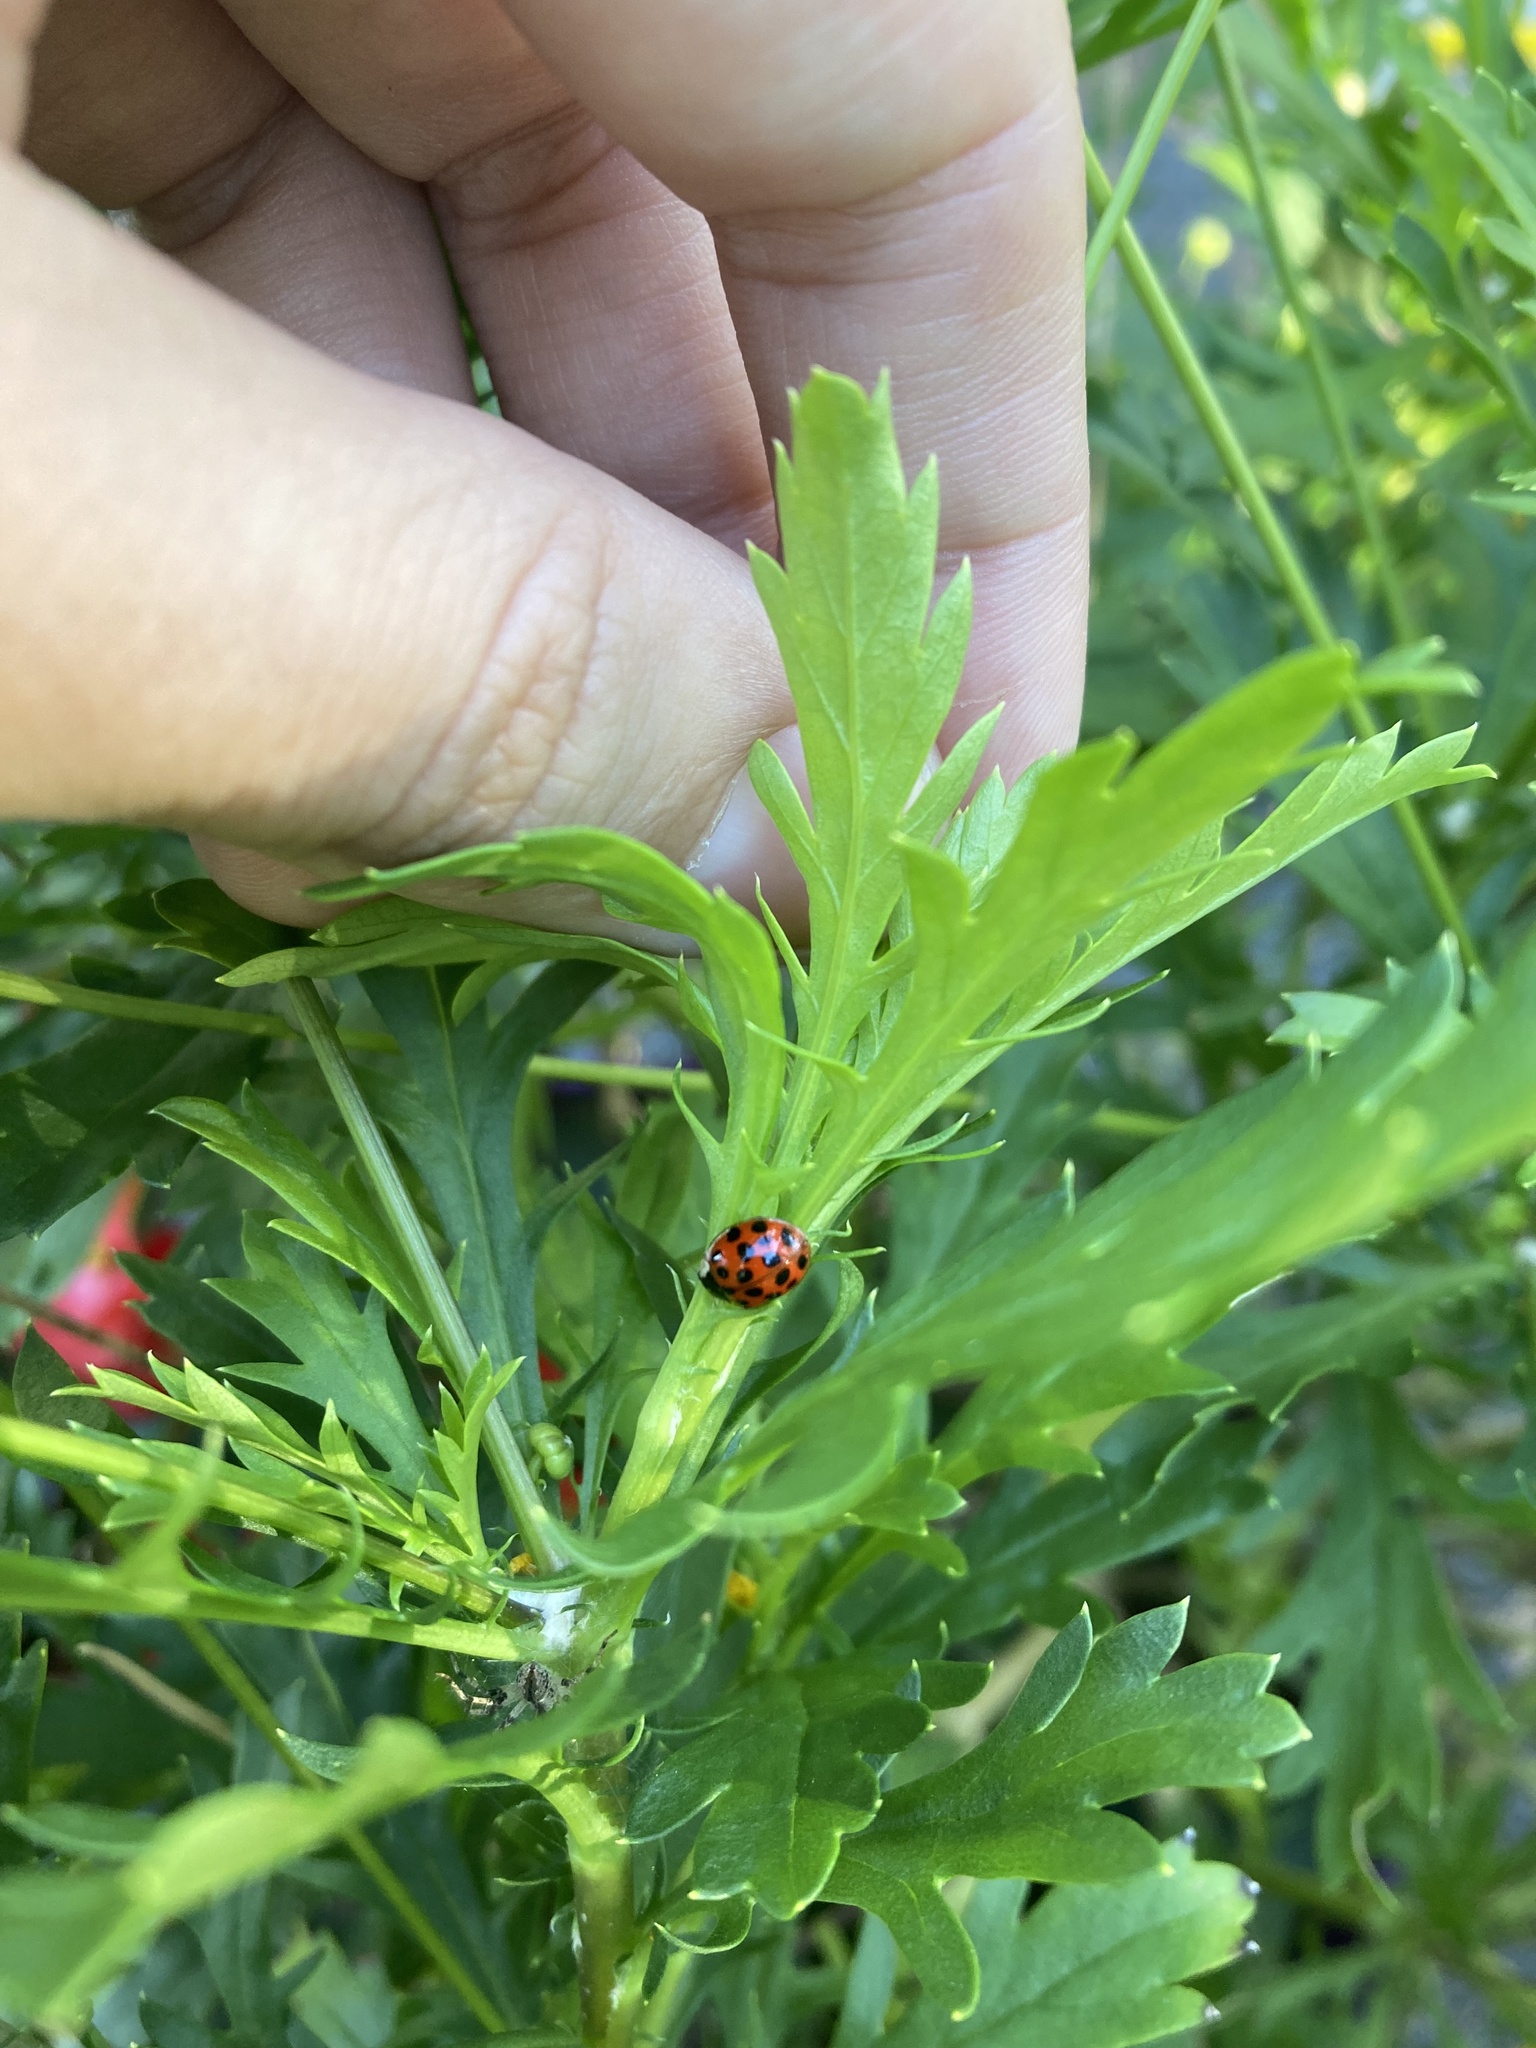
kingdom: Animalia
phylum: Arthropoda
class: Insecta
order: Coleoptera
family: Coccinellidae
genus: Harmonia
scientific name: Harmonia axyridis
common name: Harlequin ladybird
